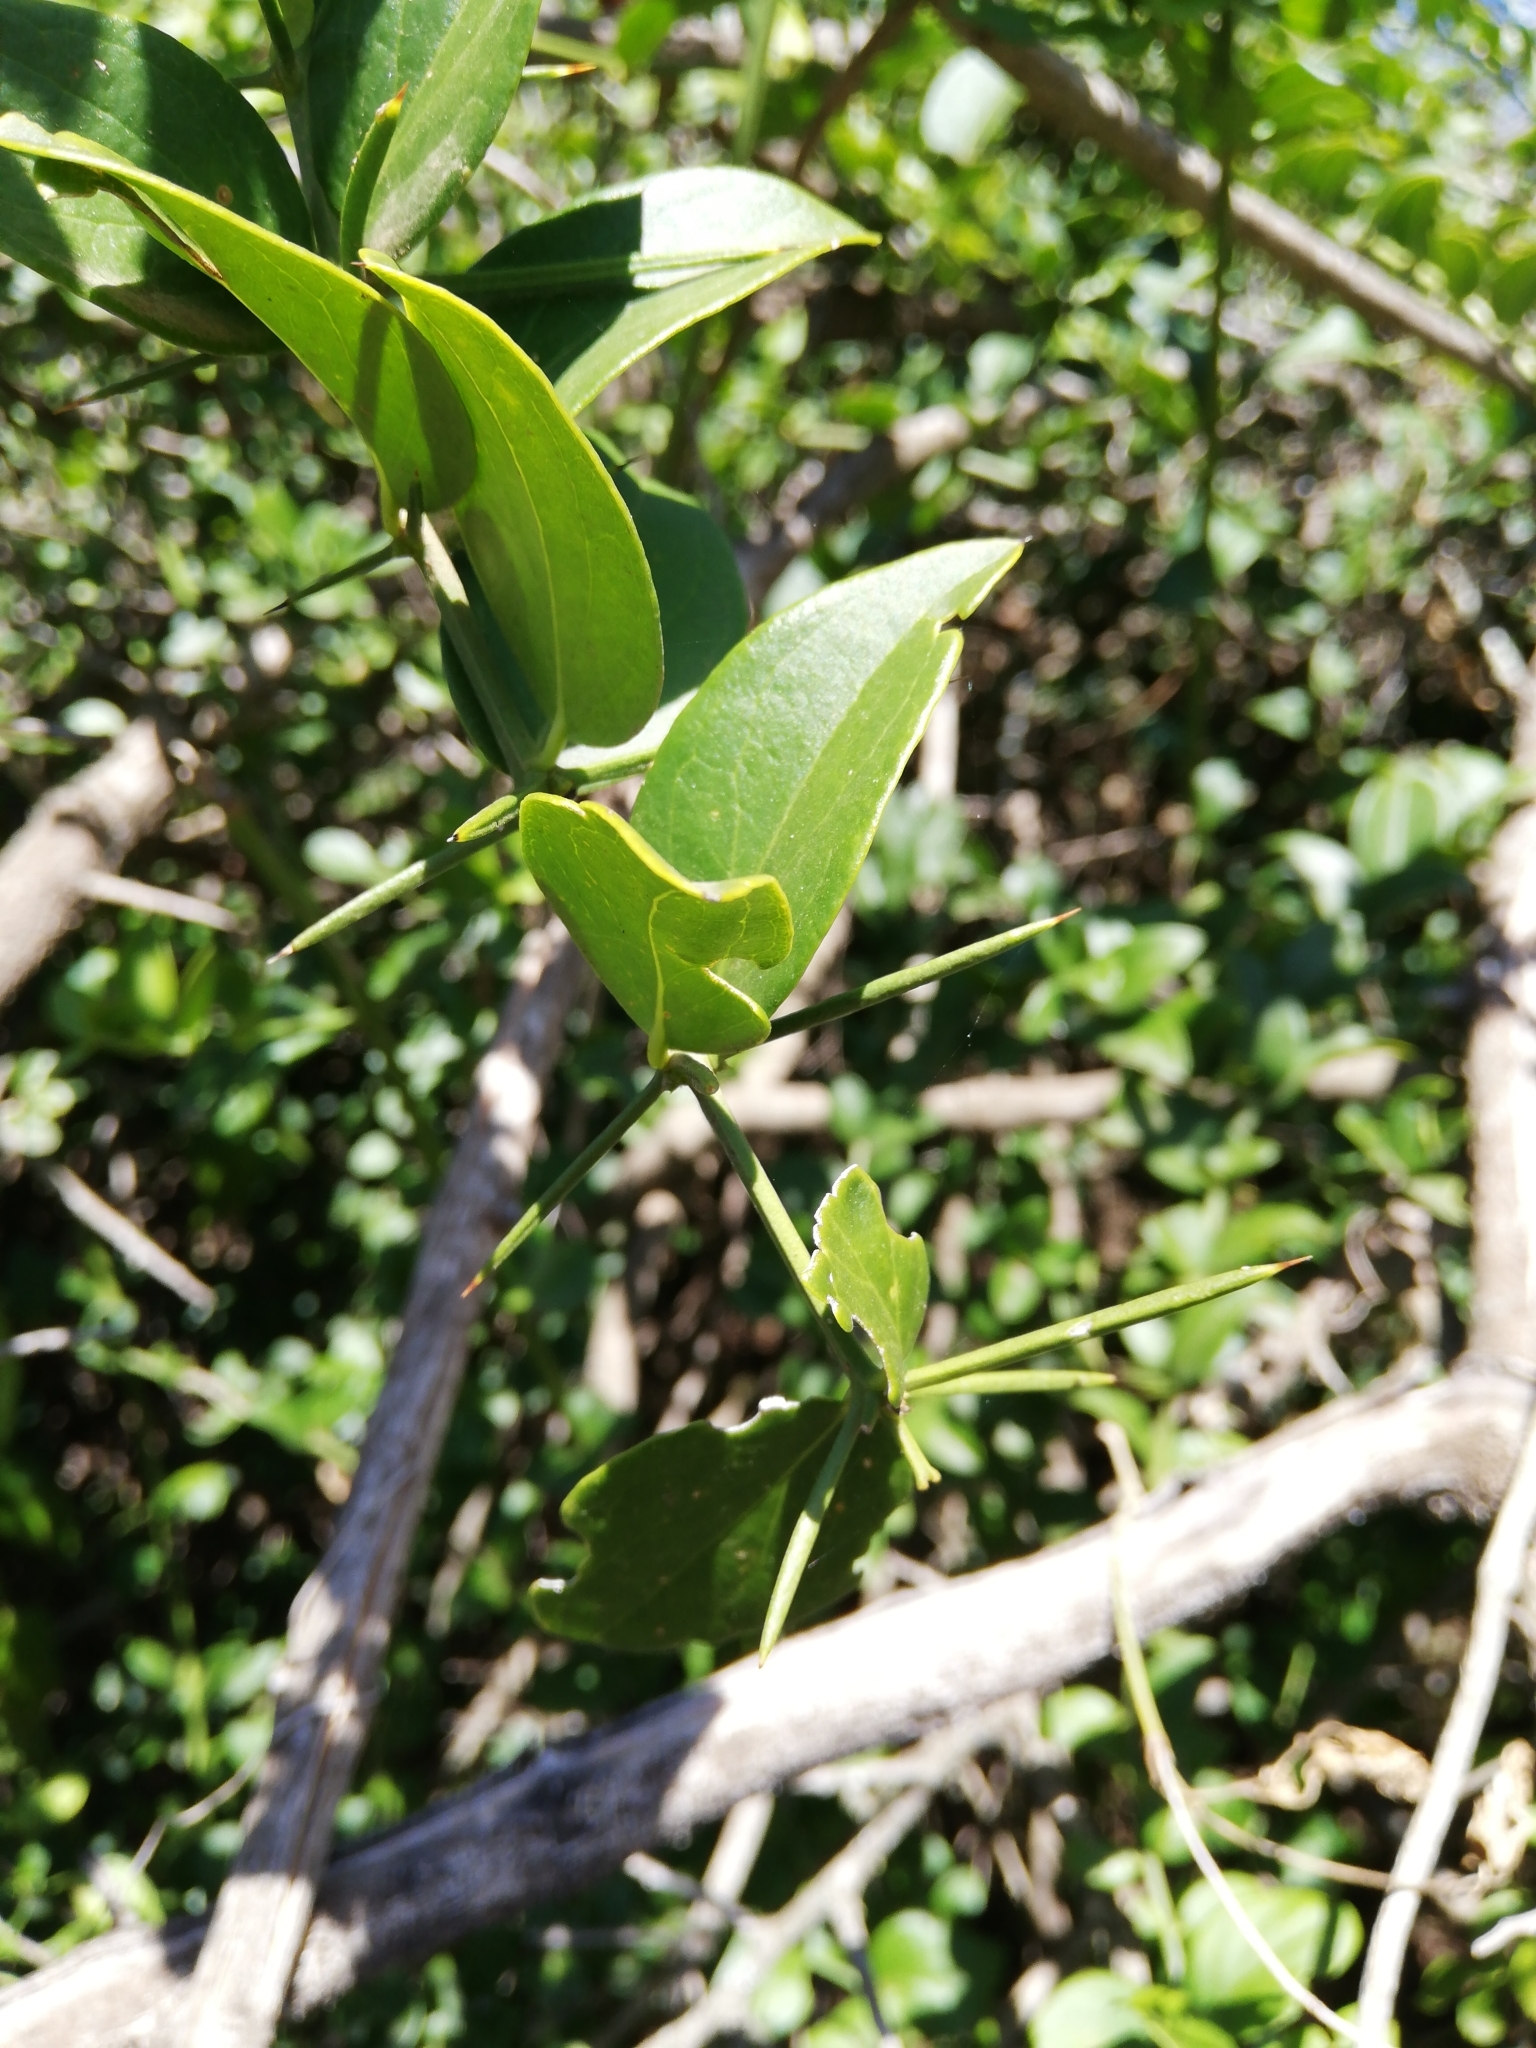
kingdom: Plantae
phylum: Tracheophyta
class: Magnoliopsida
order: Brassicales
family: Salvadoraceae
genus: Azima
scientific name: Azima tetracantha
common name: Needle bush
